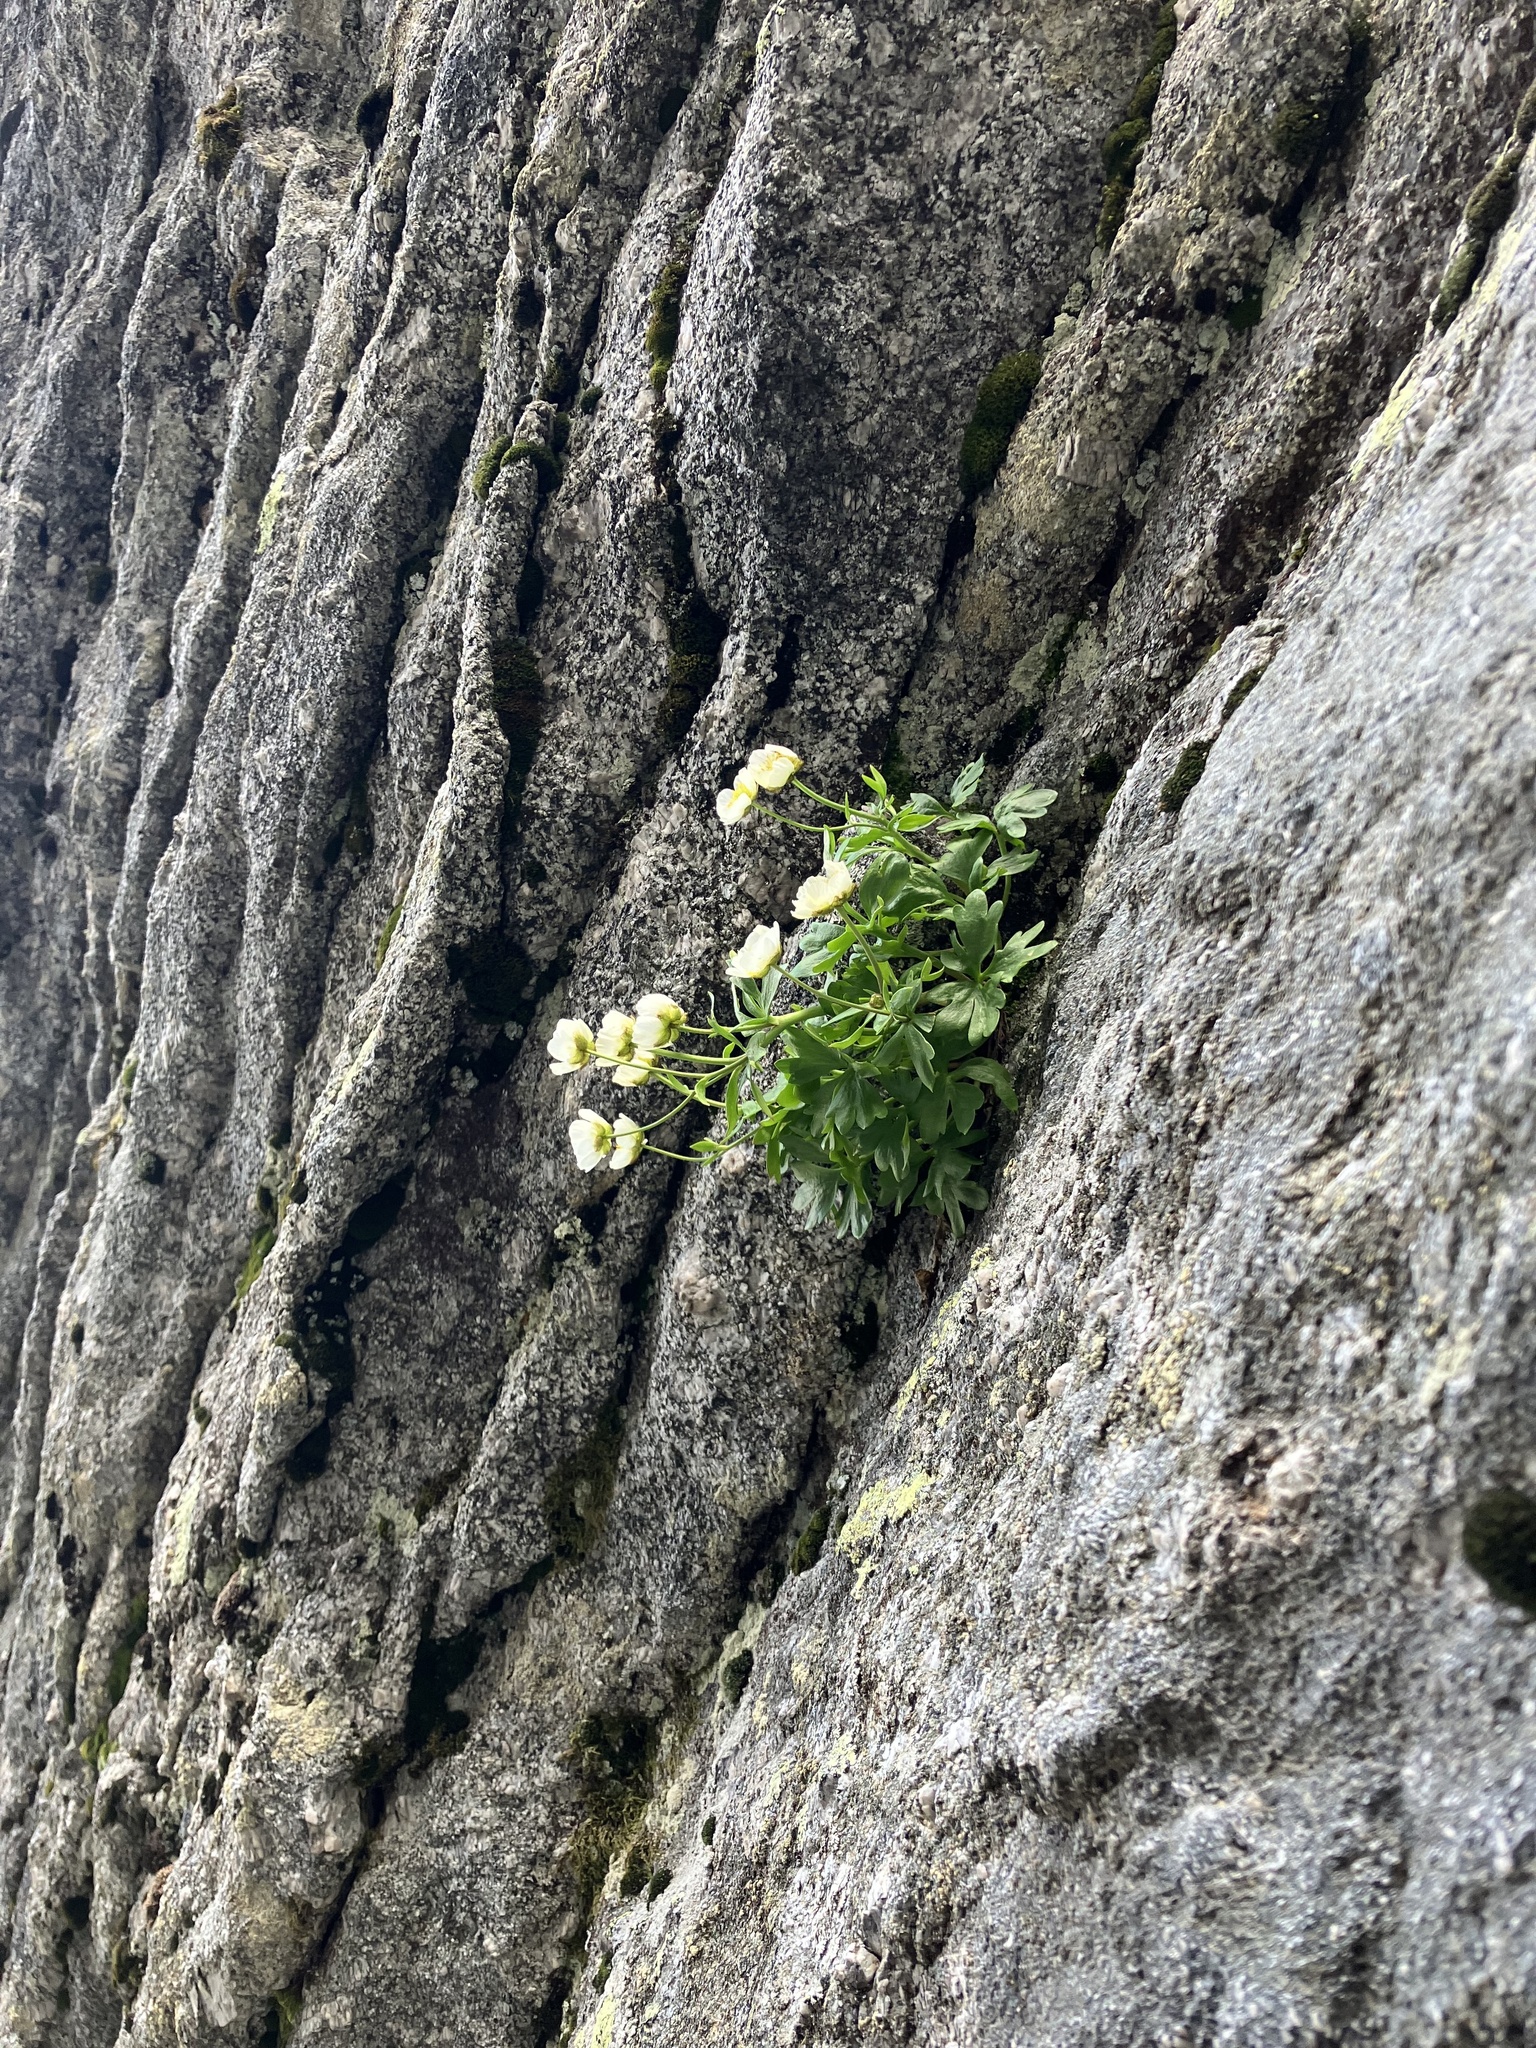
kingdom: Plantae
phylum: Tracheophyta
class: Magnoliopsida
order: Ranunculales
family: Ranunculaceae
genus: Ranunculus
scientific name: Ranunculus glacialis
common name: Glacier buttercup
